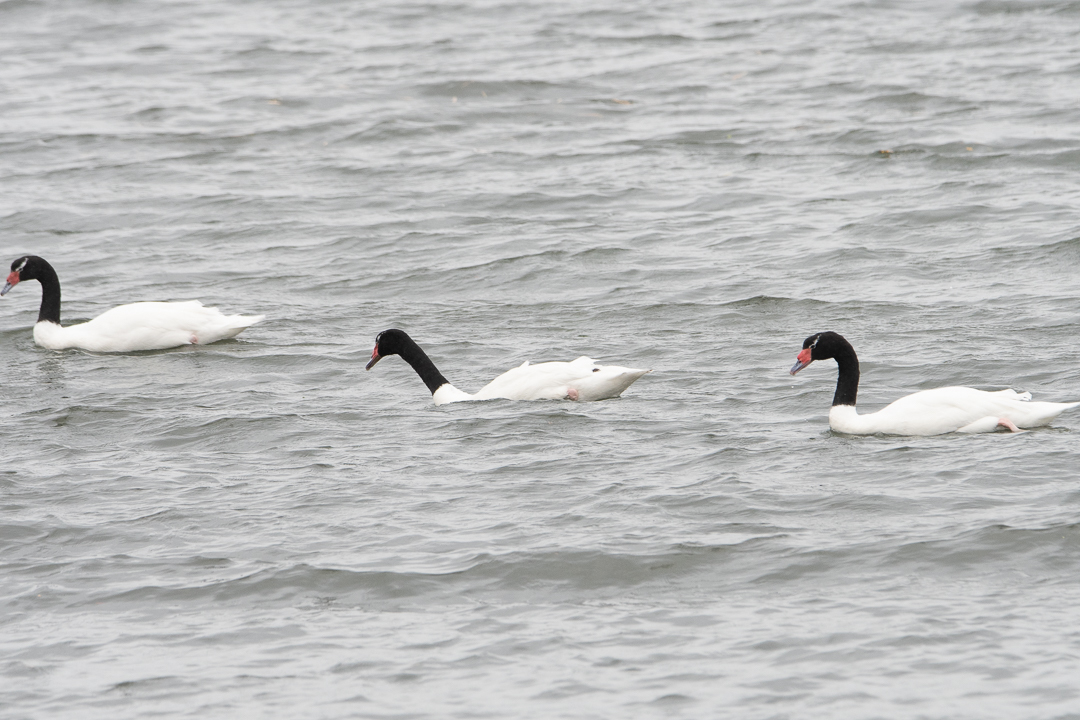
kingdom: Animalia
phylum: Chordata
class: Aves
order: Anseriformes
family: Anatidae
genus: Cygnus
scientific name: Cygnus melancoryphus
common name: Black-necked swan
